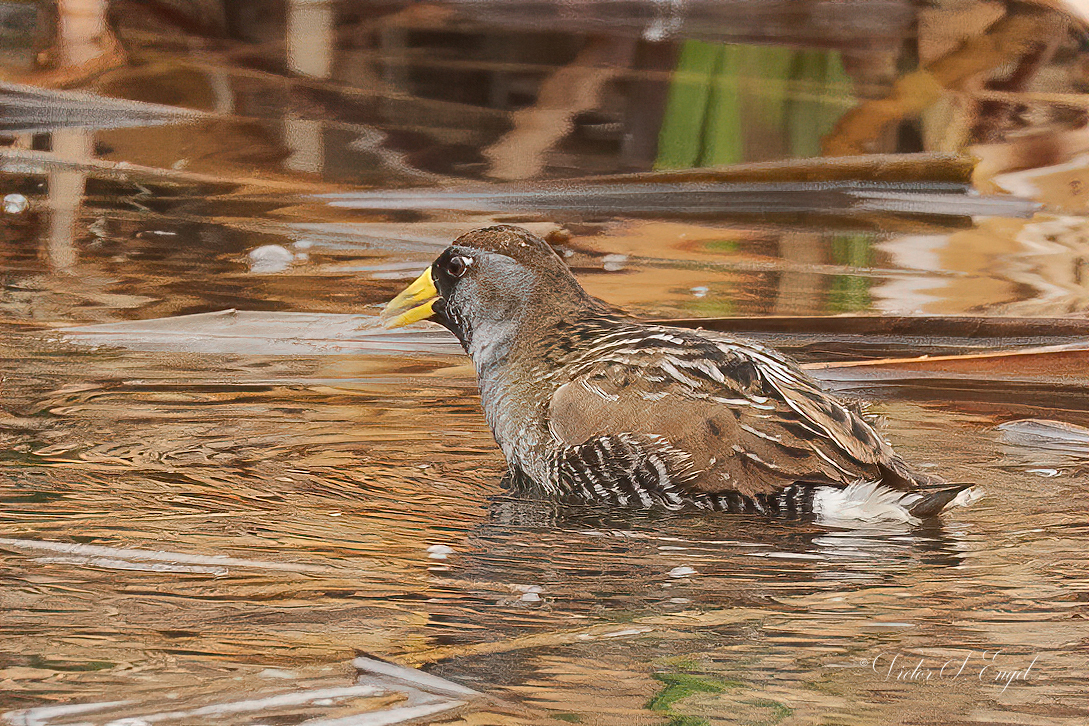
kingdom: Animalia
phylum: Chordata
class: Aves
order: Gruiformes
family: Rallidae
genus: Porzana
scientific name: Porzana carolina
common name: Sora
